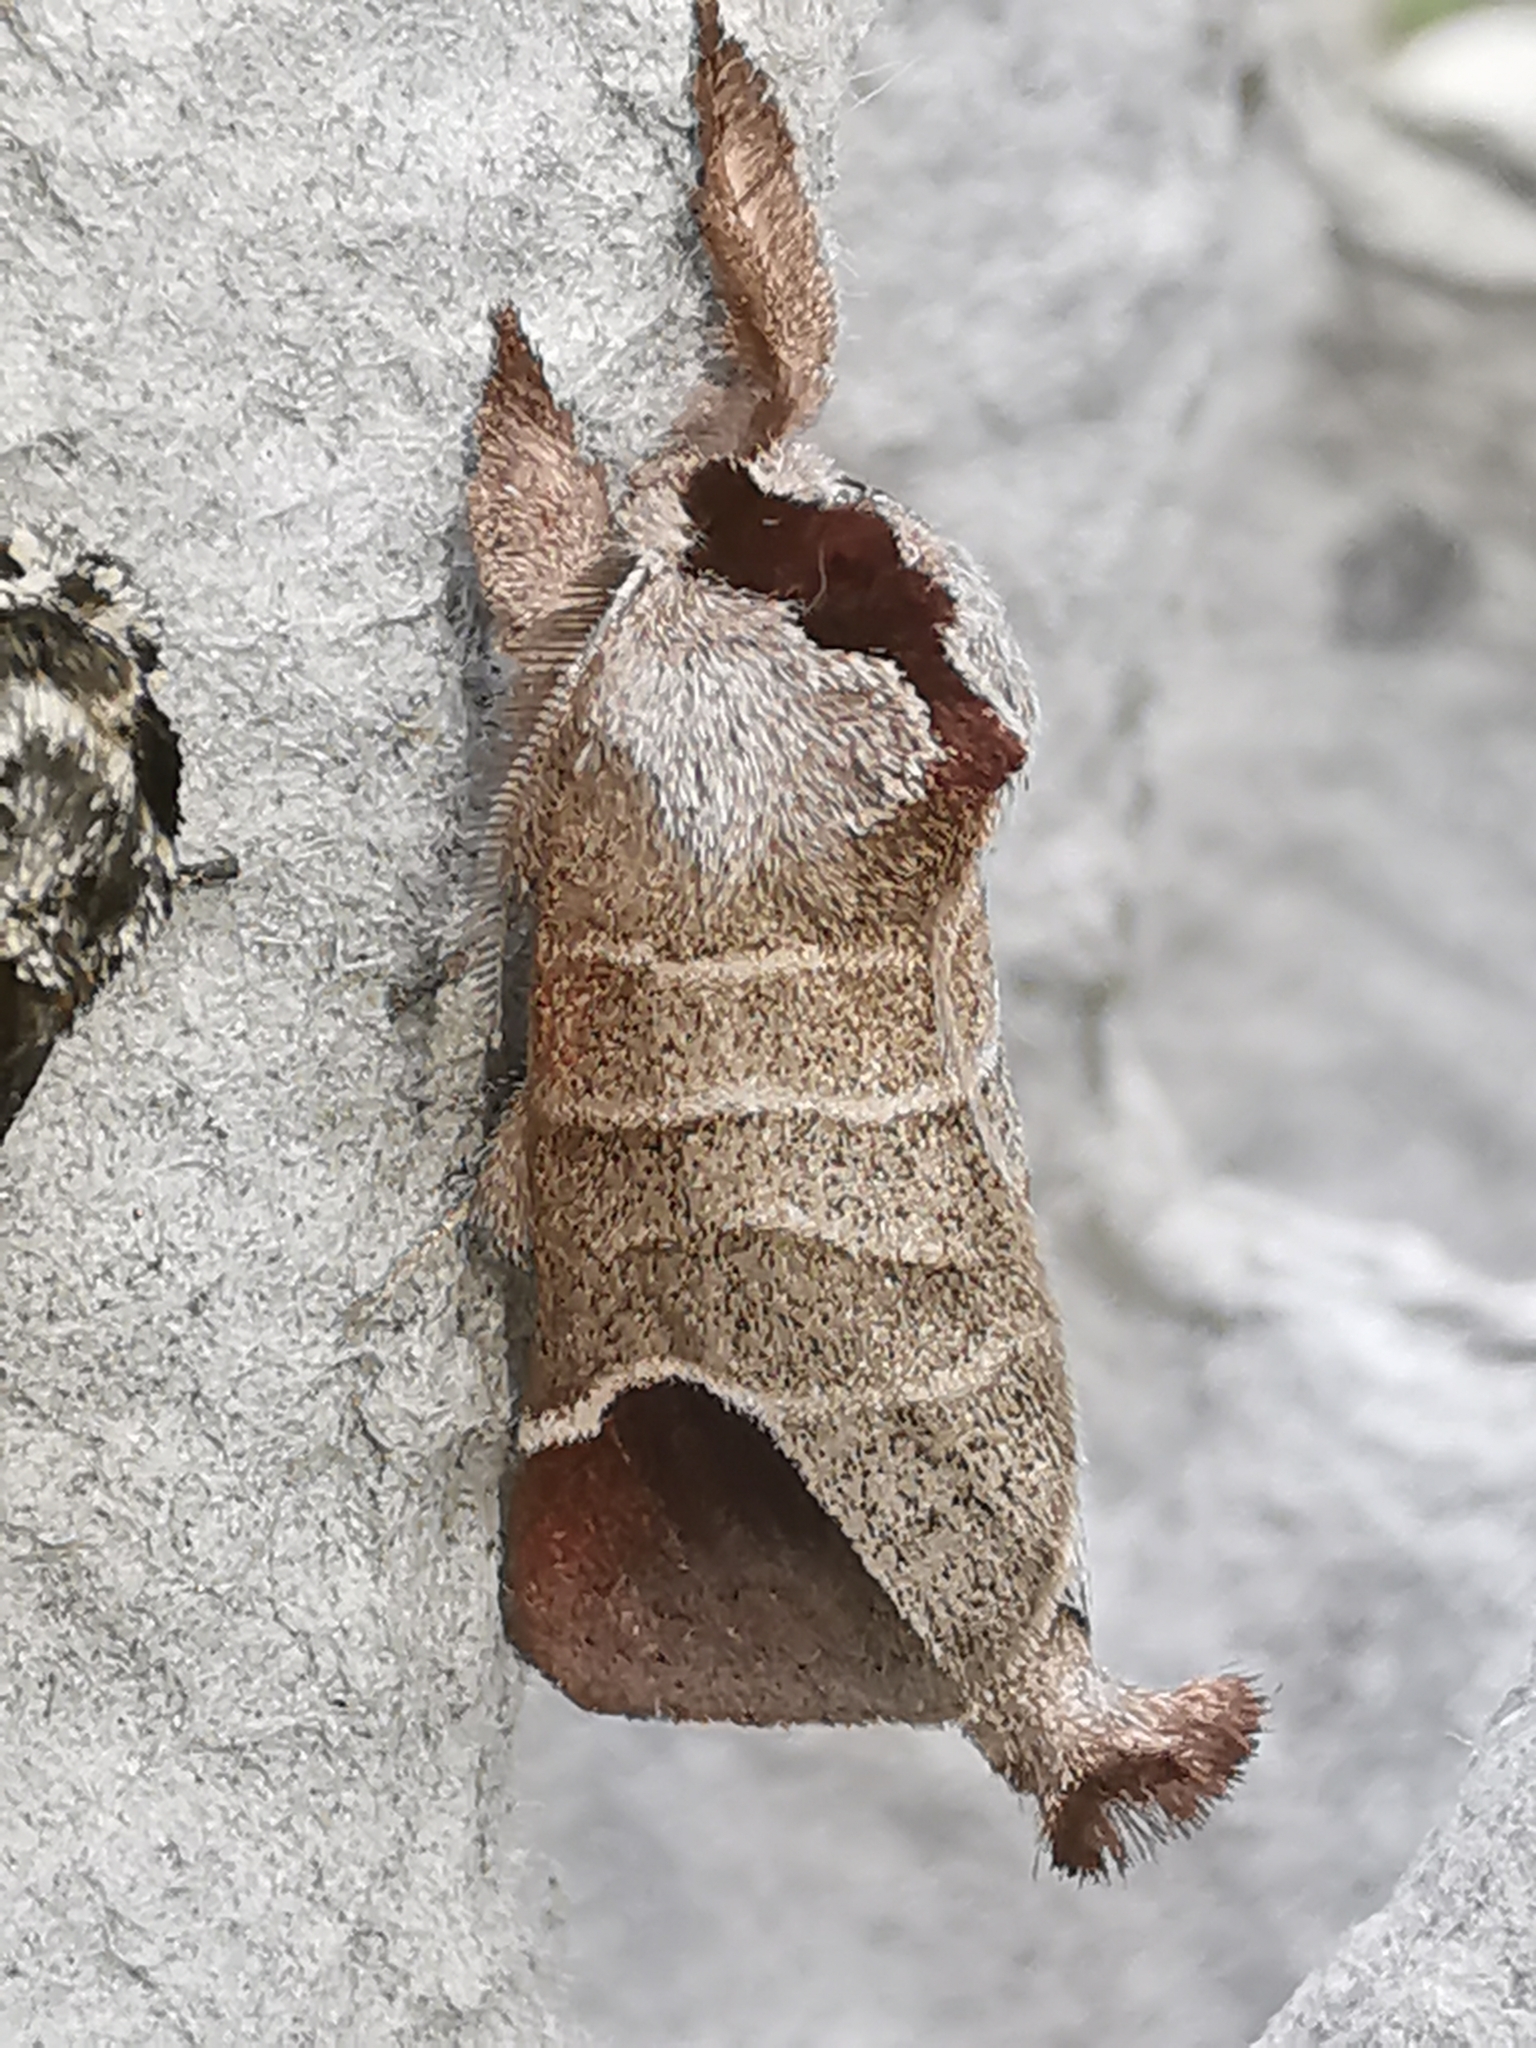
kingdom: Animalia
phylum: Arthropoda
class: Insecta
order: Lepidoptera
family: Notodontidae
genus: Clostera
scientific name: Clostera curtula
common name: Chocolate-tip
